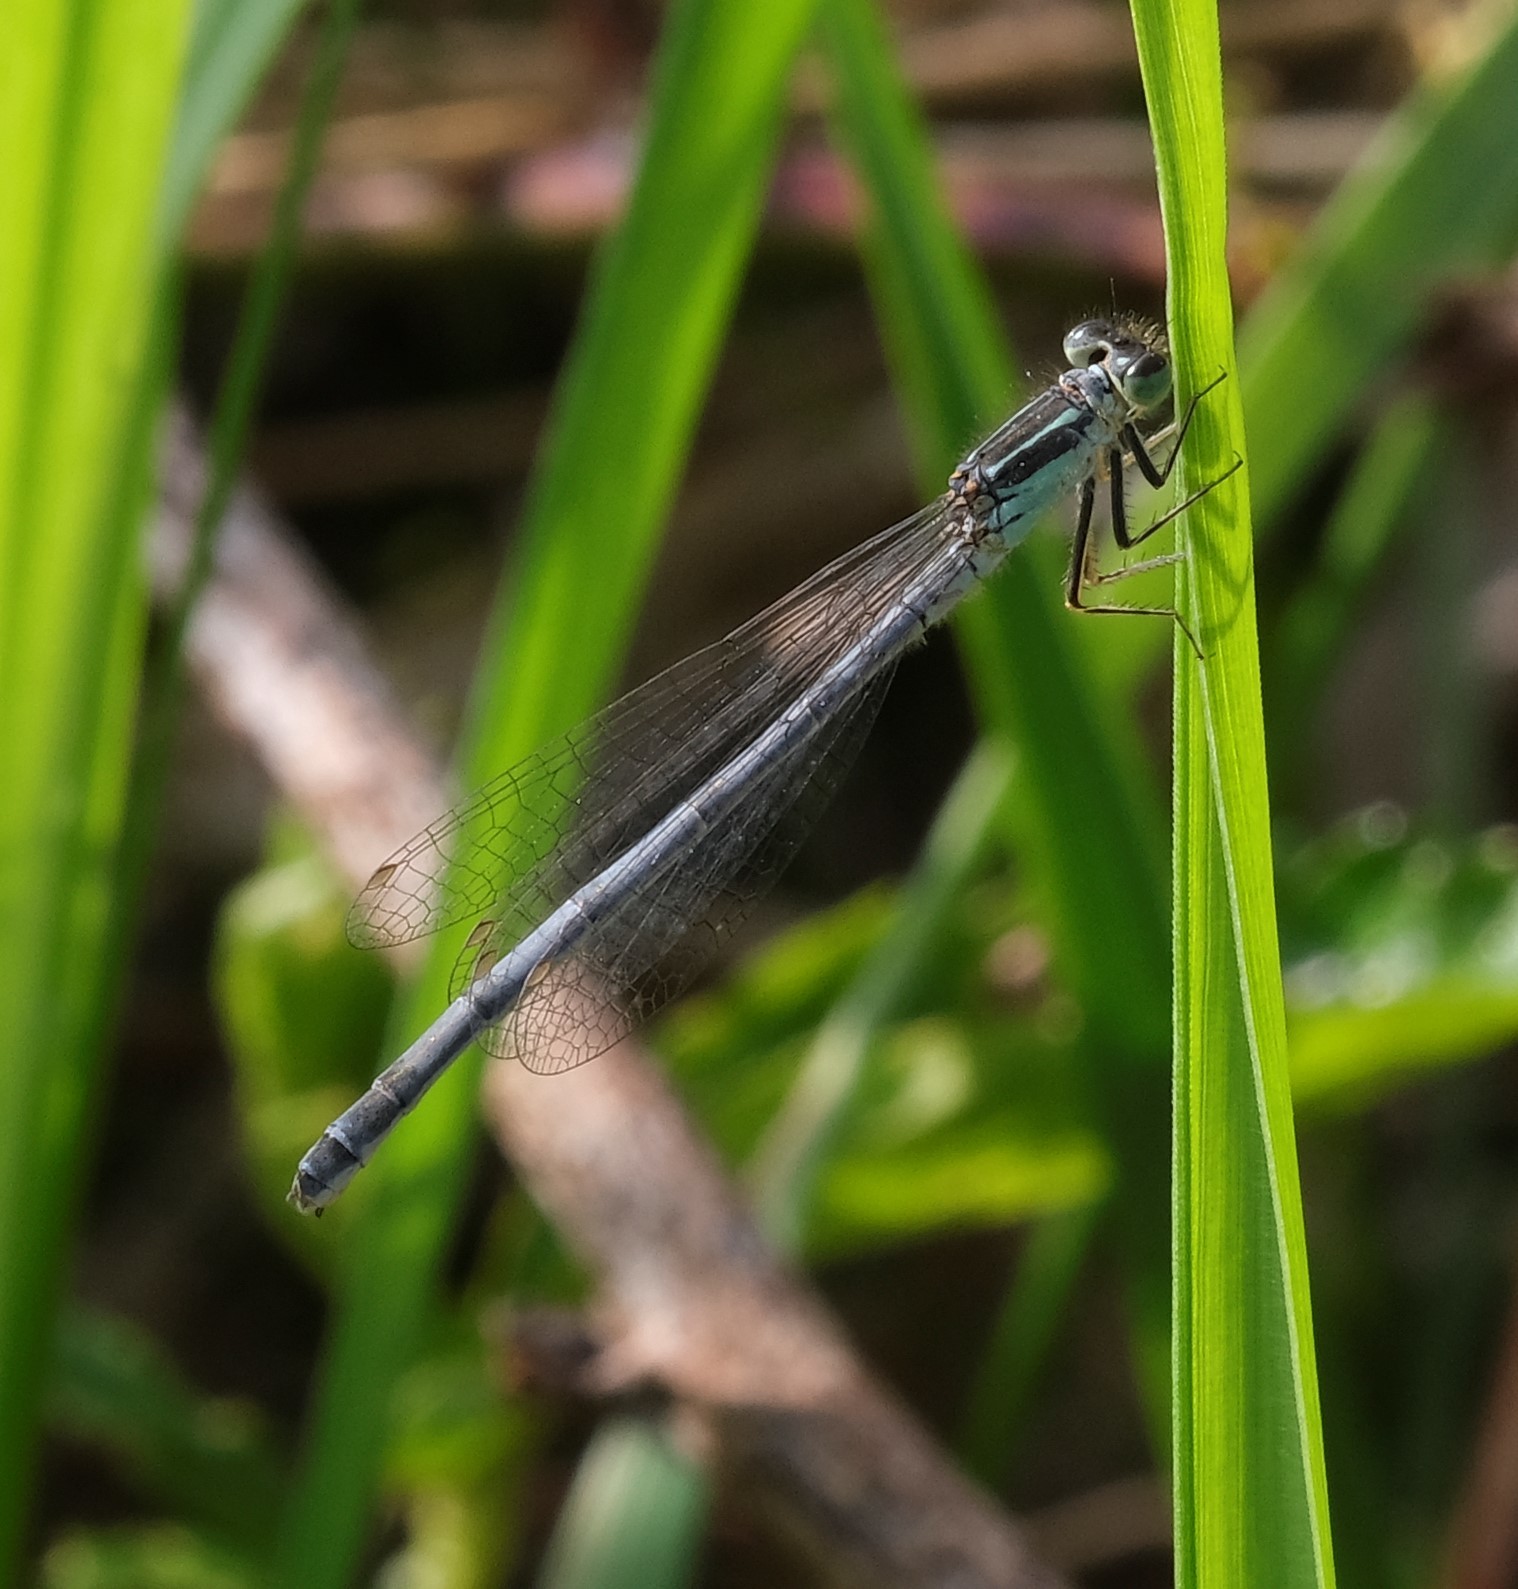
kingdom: Animalia
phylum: Arthropoda
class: Insecta
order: Odonata
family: Coenagrionidae
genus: Ischnura
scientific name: Ischnura verticalis
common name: Eastern forktail
